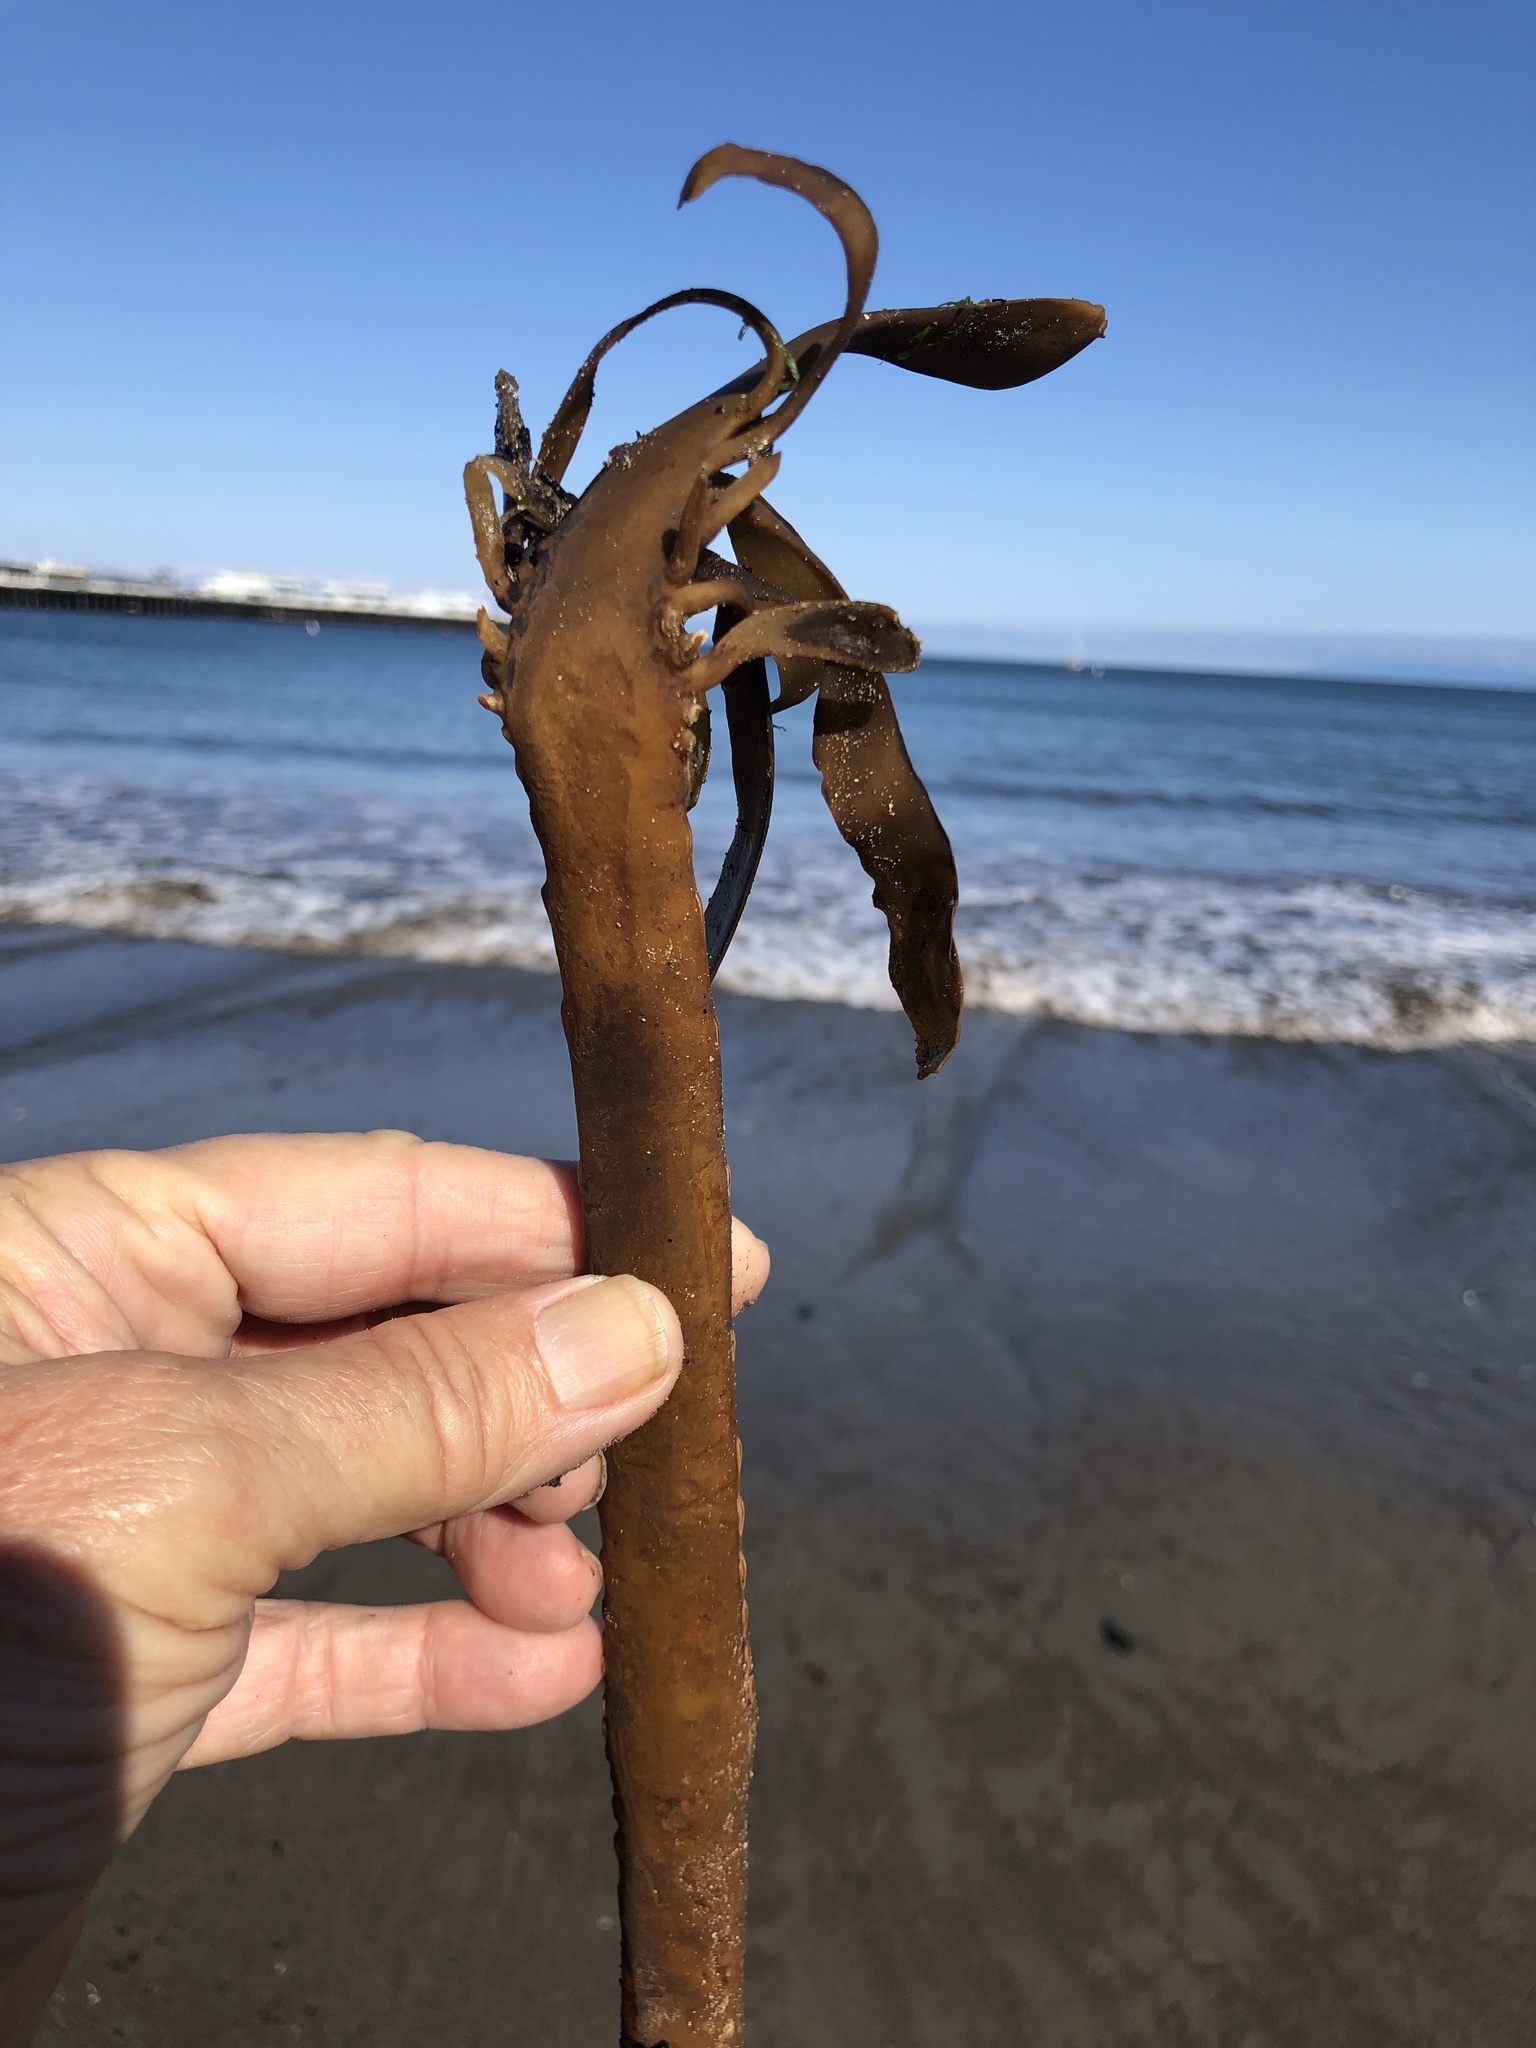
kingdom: Chromista
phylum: Ochrophyta
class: Phaeophyceae
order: Laminariales
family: Alariaceae
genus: Pterygophora
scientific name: Pterygophora californica
